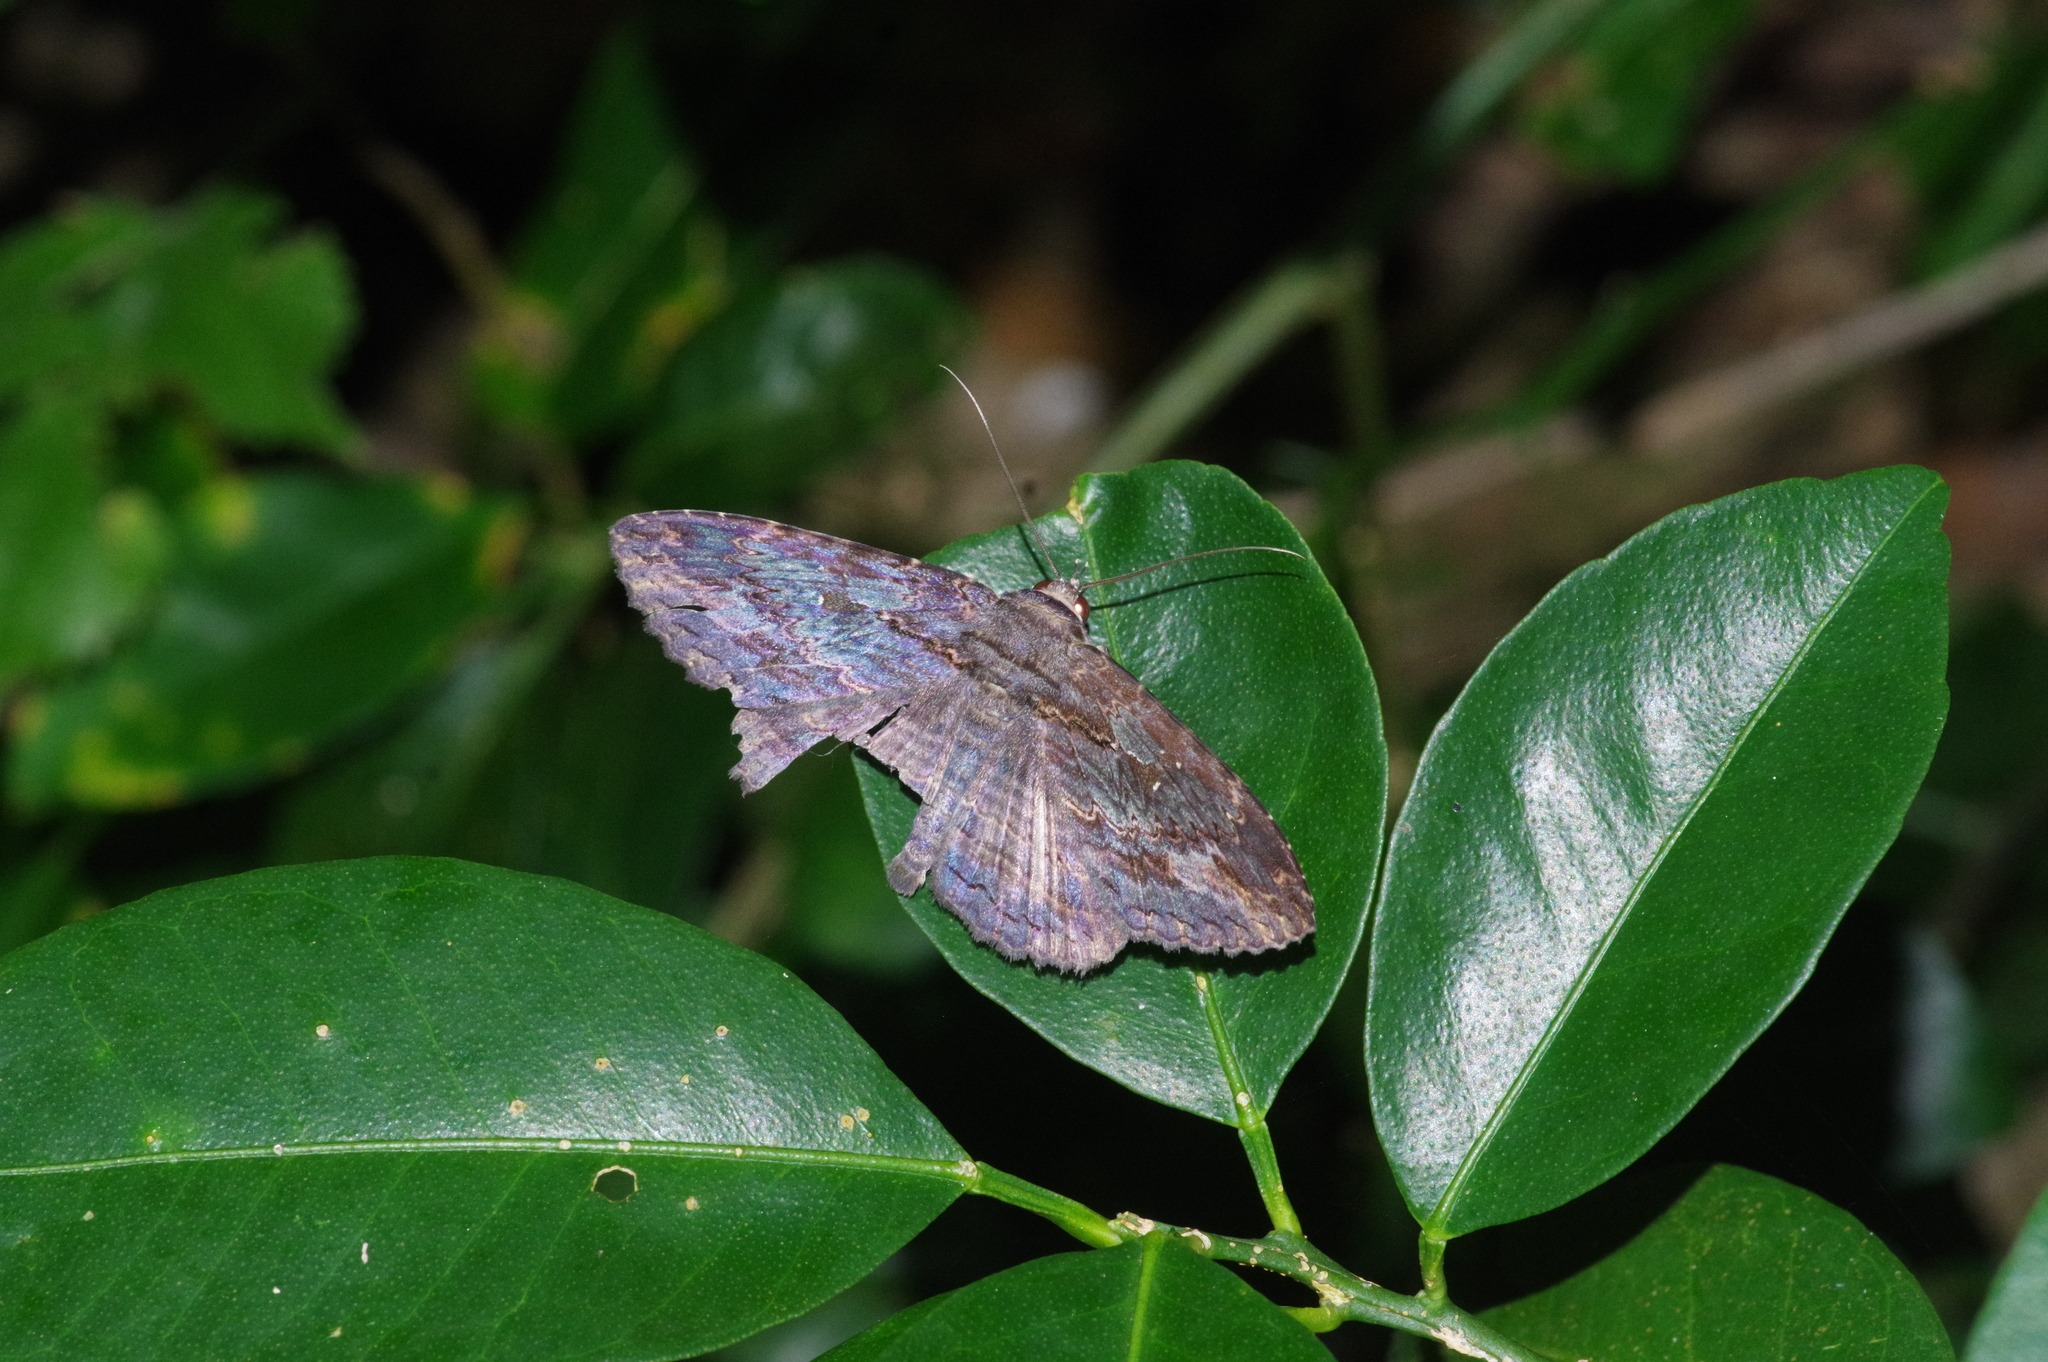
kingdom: Animalia
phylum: Arthropoda
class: Insecta
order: Lepidoptera
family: Erebidae
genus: Anisoneura
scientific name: Anisoneura salebrosa
